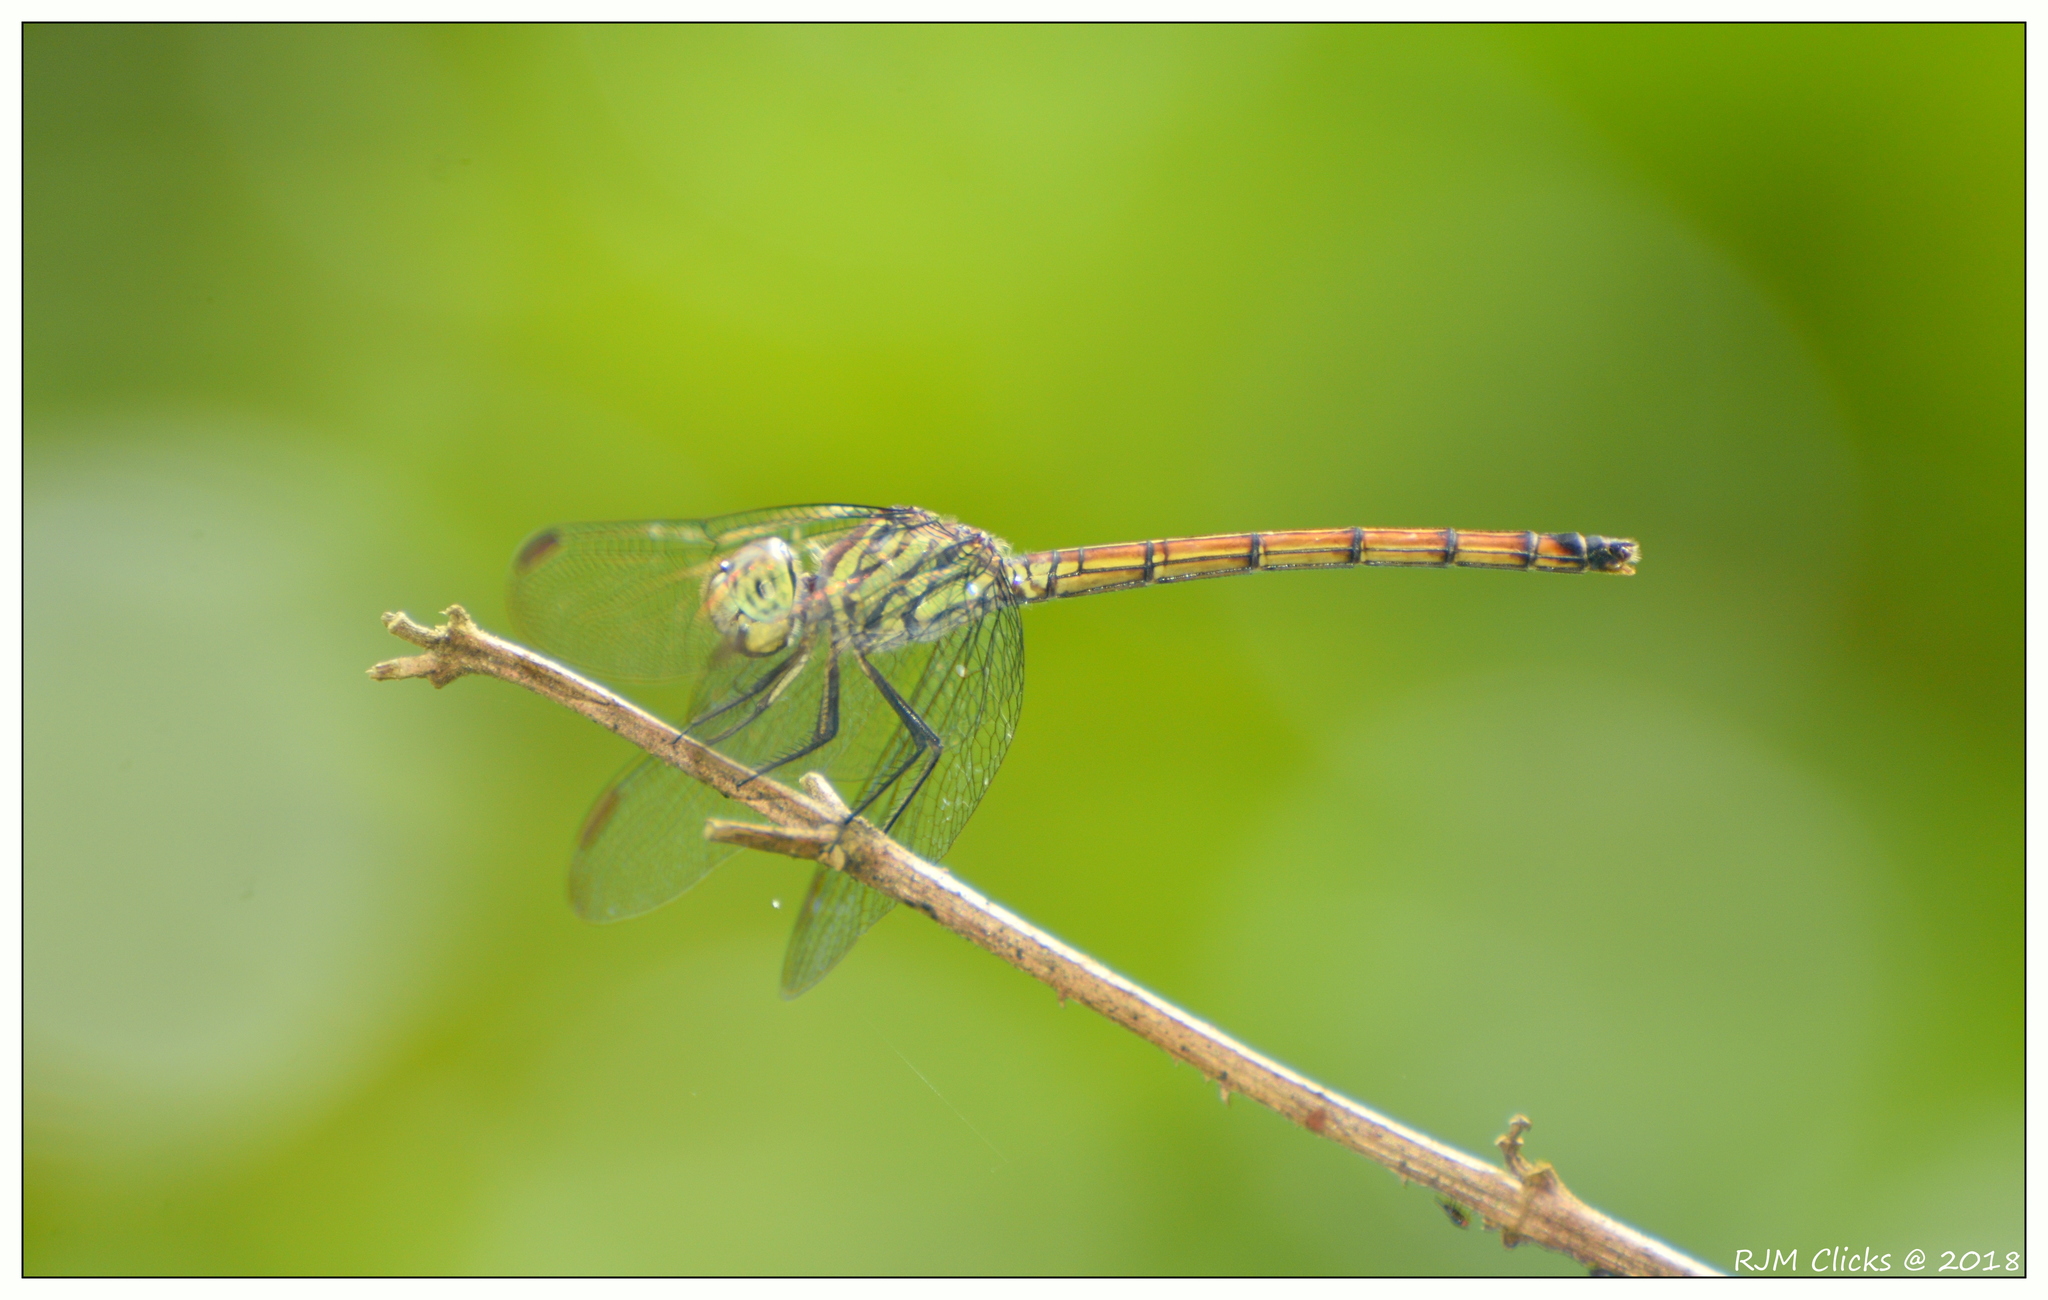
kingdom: Animalia
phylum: Arthropoda
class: Insecta
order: Odonata
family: Libellulidae
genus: Lathrecista
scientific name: Lathrecista asiatica
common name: Scarlet grenadier
